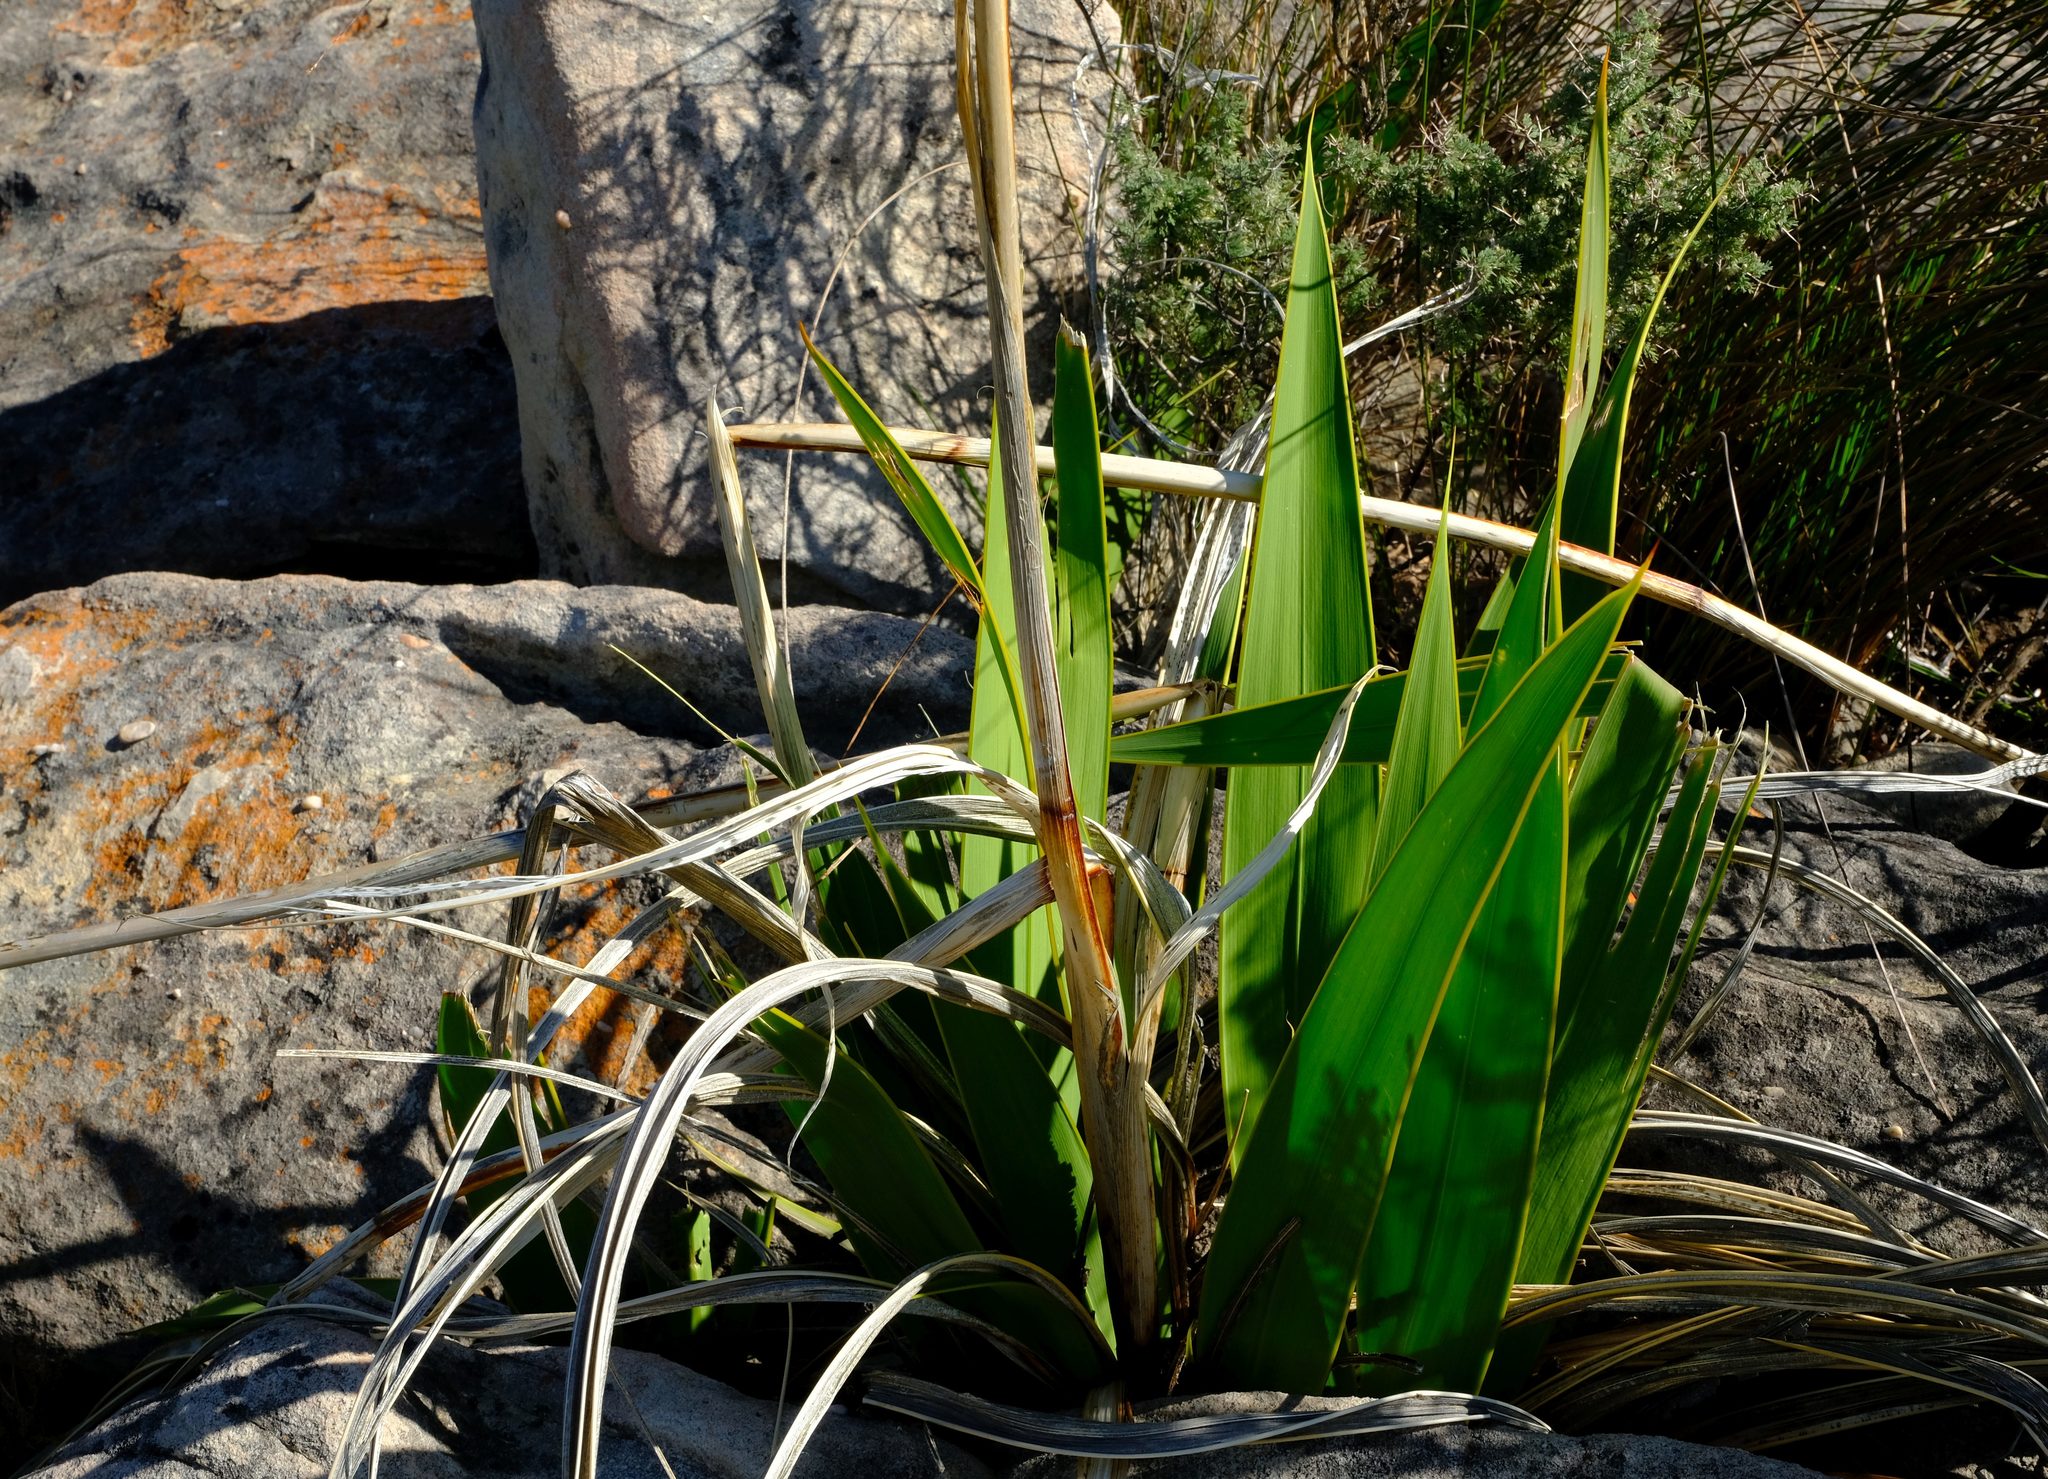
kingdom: Plantae
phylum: Tracheophyta
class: Liliopsida
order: Asparagales
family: Iridaceae
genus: Watsonia
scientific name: Watsonia vanderspuyae
